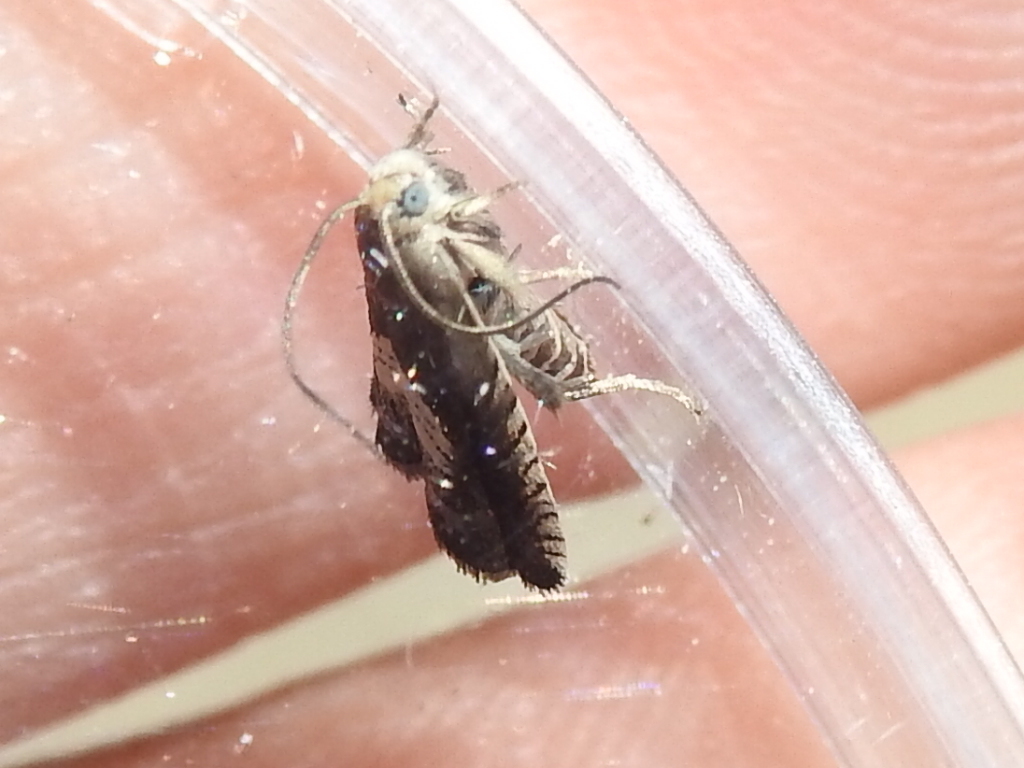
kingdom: Animalia
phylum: Arthropoda
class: Insecta
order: Lepidoptera
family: Tortricidae
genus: Grapholita
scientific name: Grapholita tristrigana
